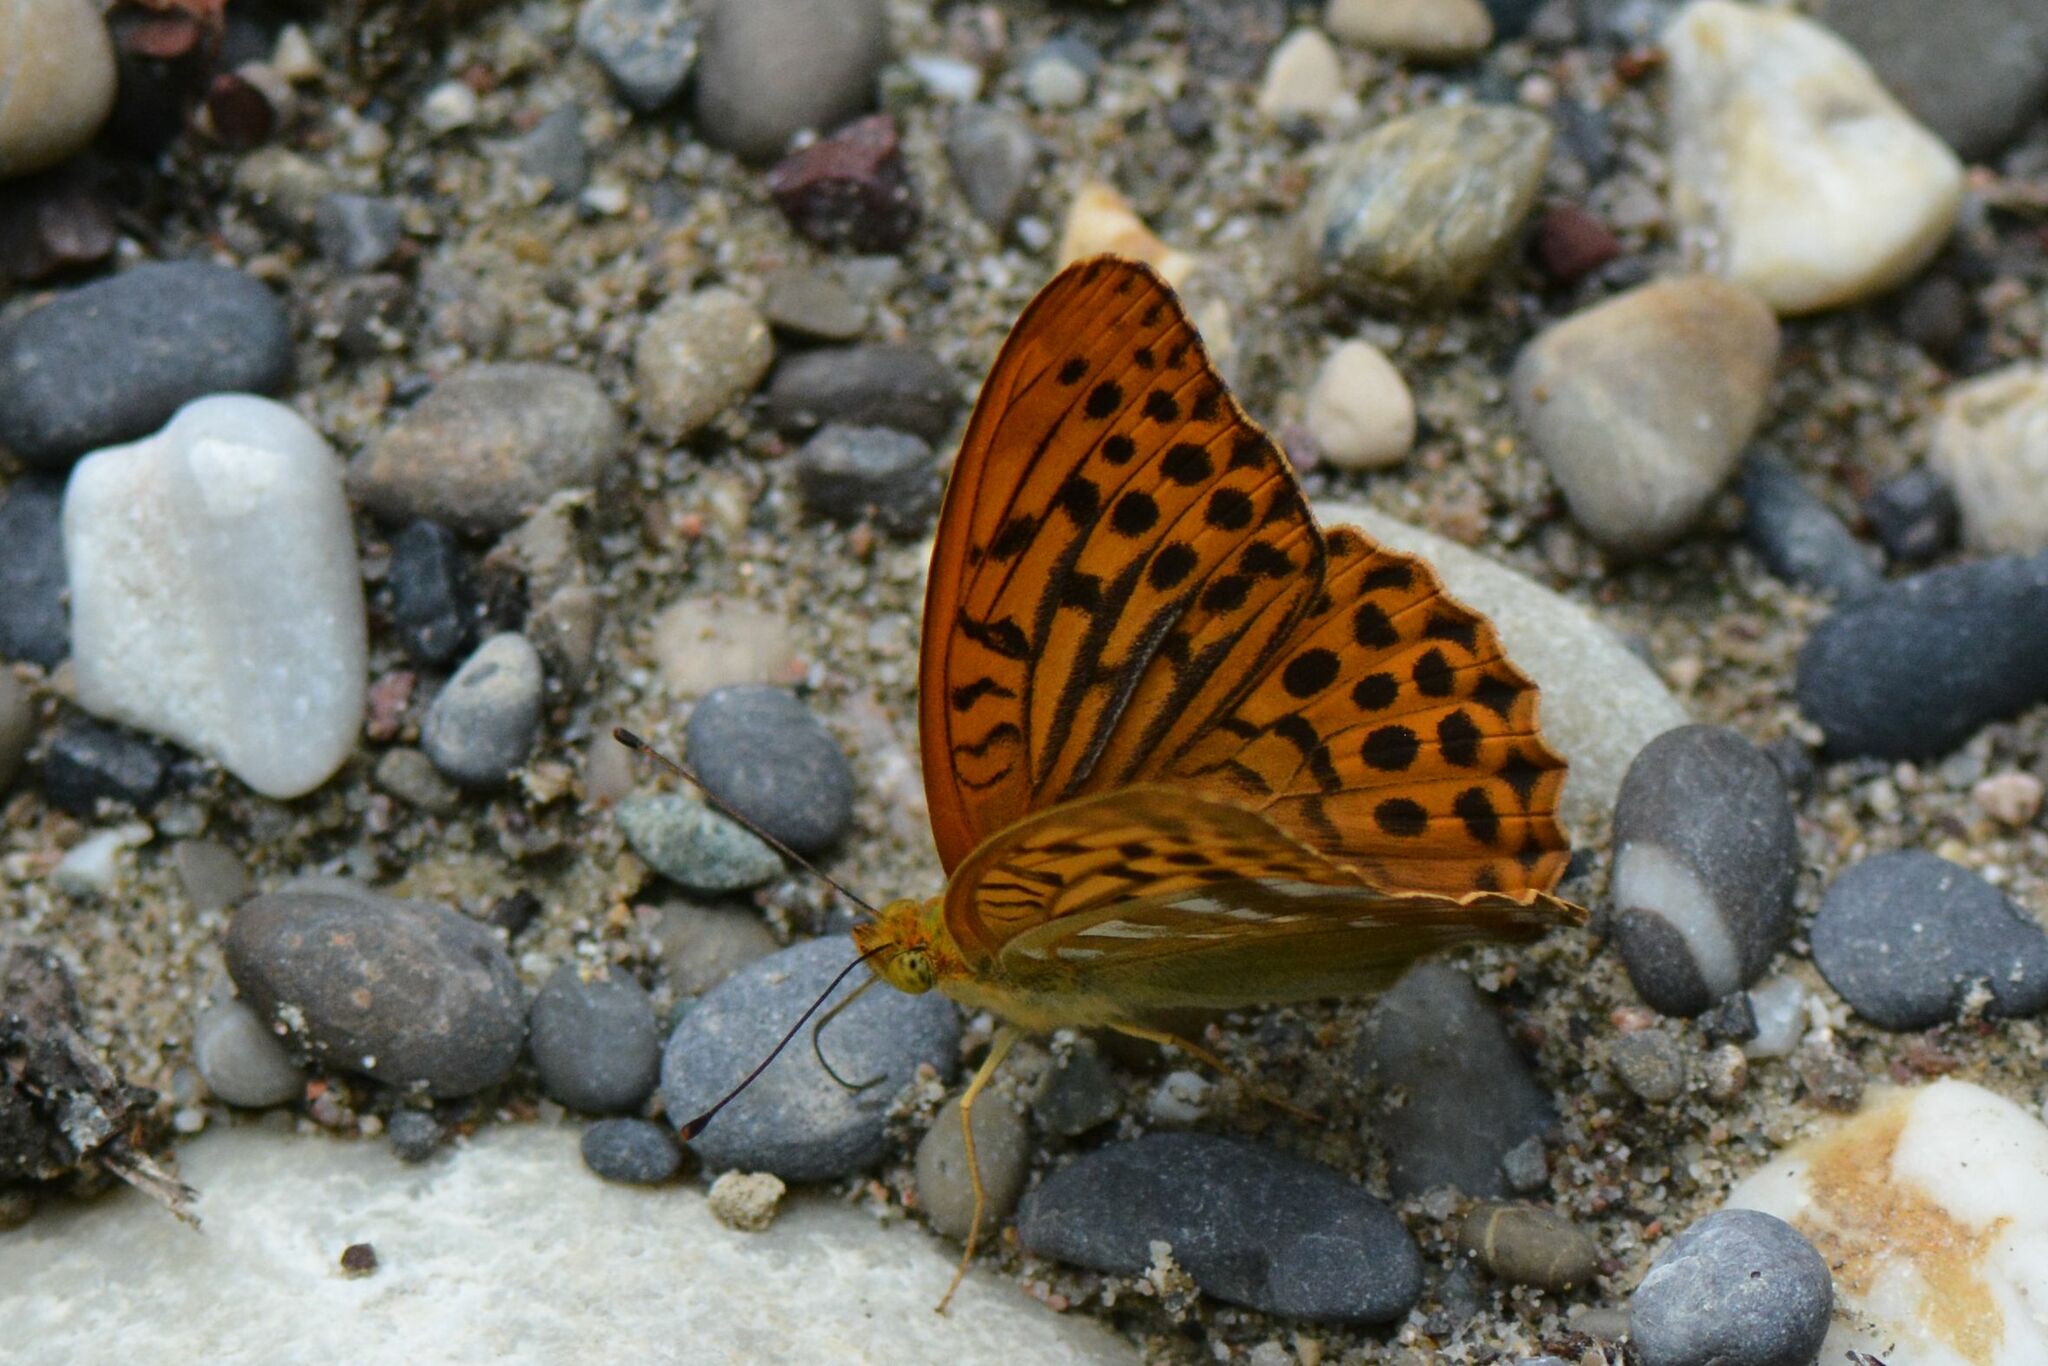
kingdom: Animalia
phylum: Arthropoda
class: Insecta
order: Lepidoptera
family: Nymphalidae
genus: Argynnis
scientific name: Argynnis paphia
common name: Silver-washed fritillary
